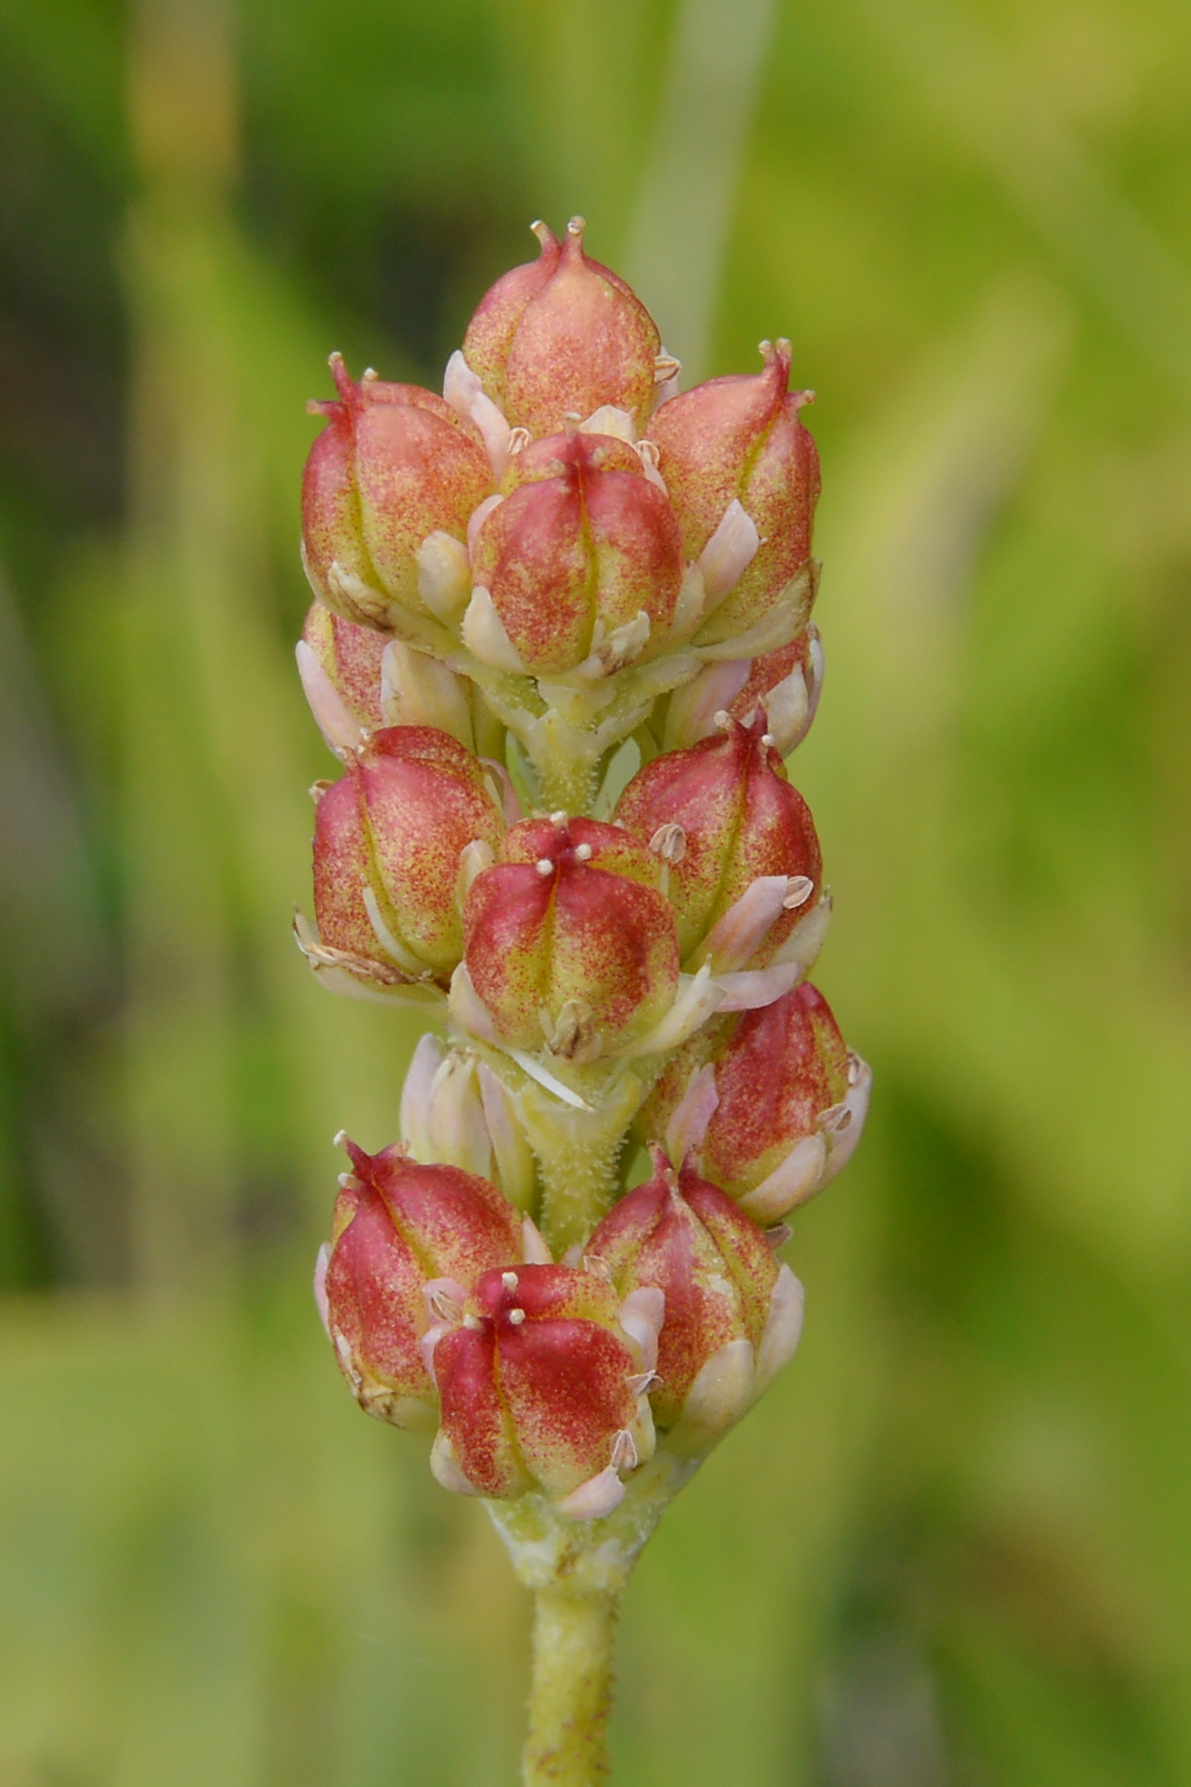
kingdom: Plantae
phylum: Tracheophyta
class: Liliopsida
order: Alismatales
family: Tofieldiaceae
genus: Triantha
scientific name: Triantha glutinosa
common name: Glutinous tofieldia
